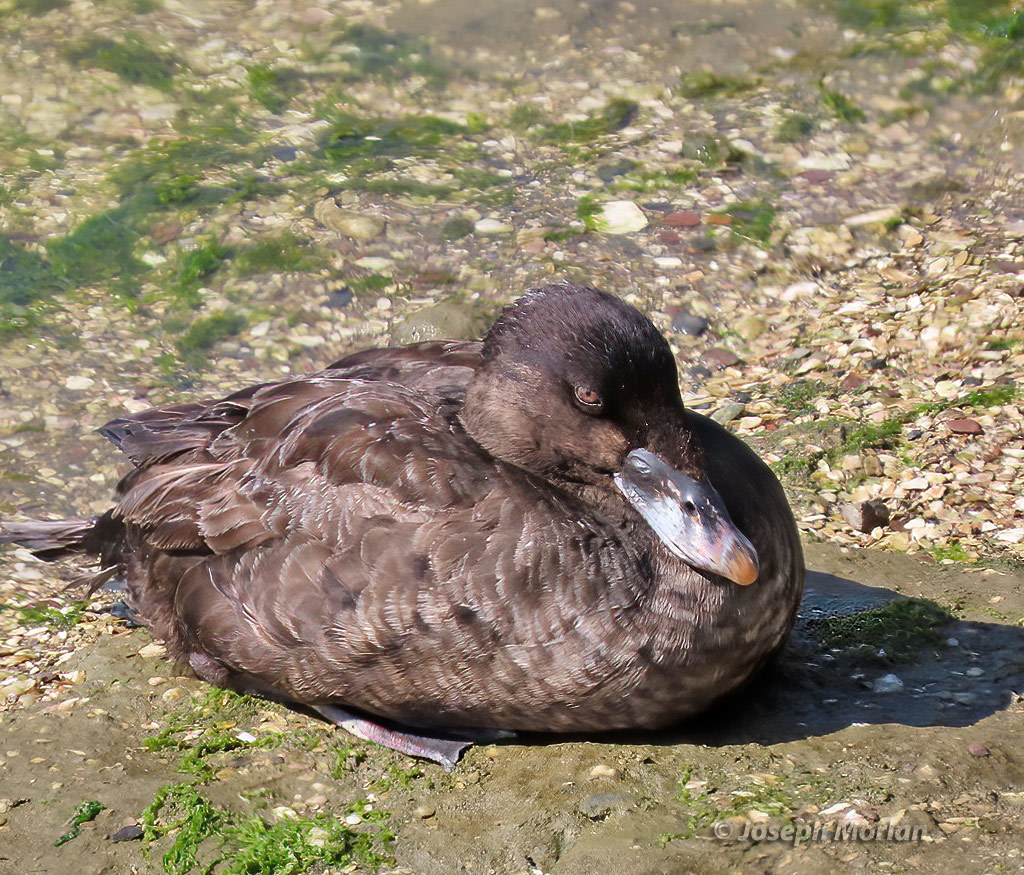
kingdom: Animalia
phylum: Chordata
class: Aves
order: Anseriformes
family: Anatidae
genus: Melanitta
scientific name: Melanitta perspicillata
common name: Surf scoter
